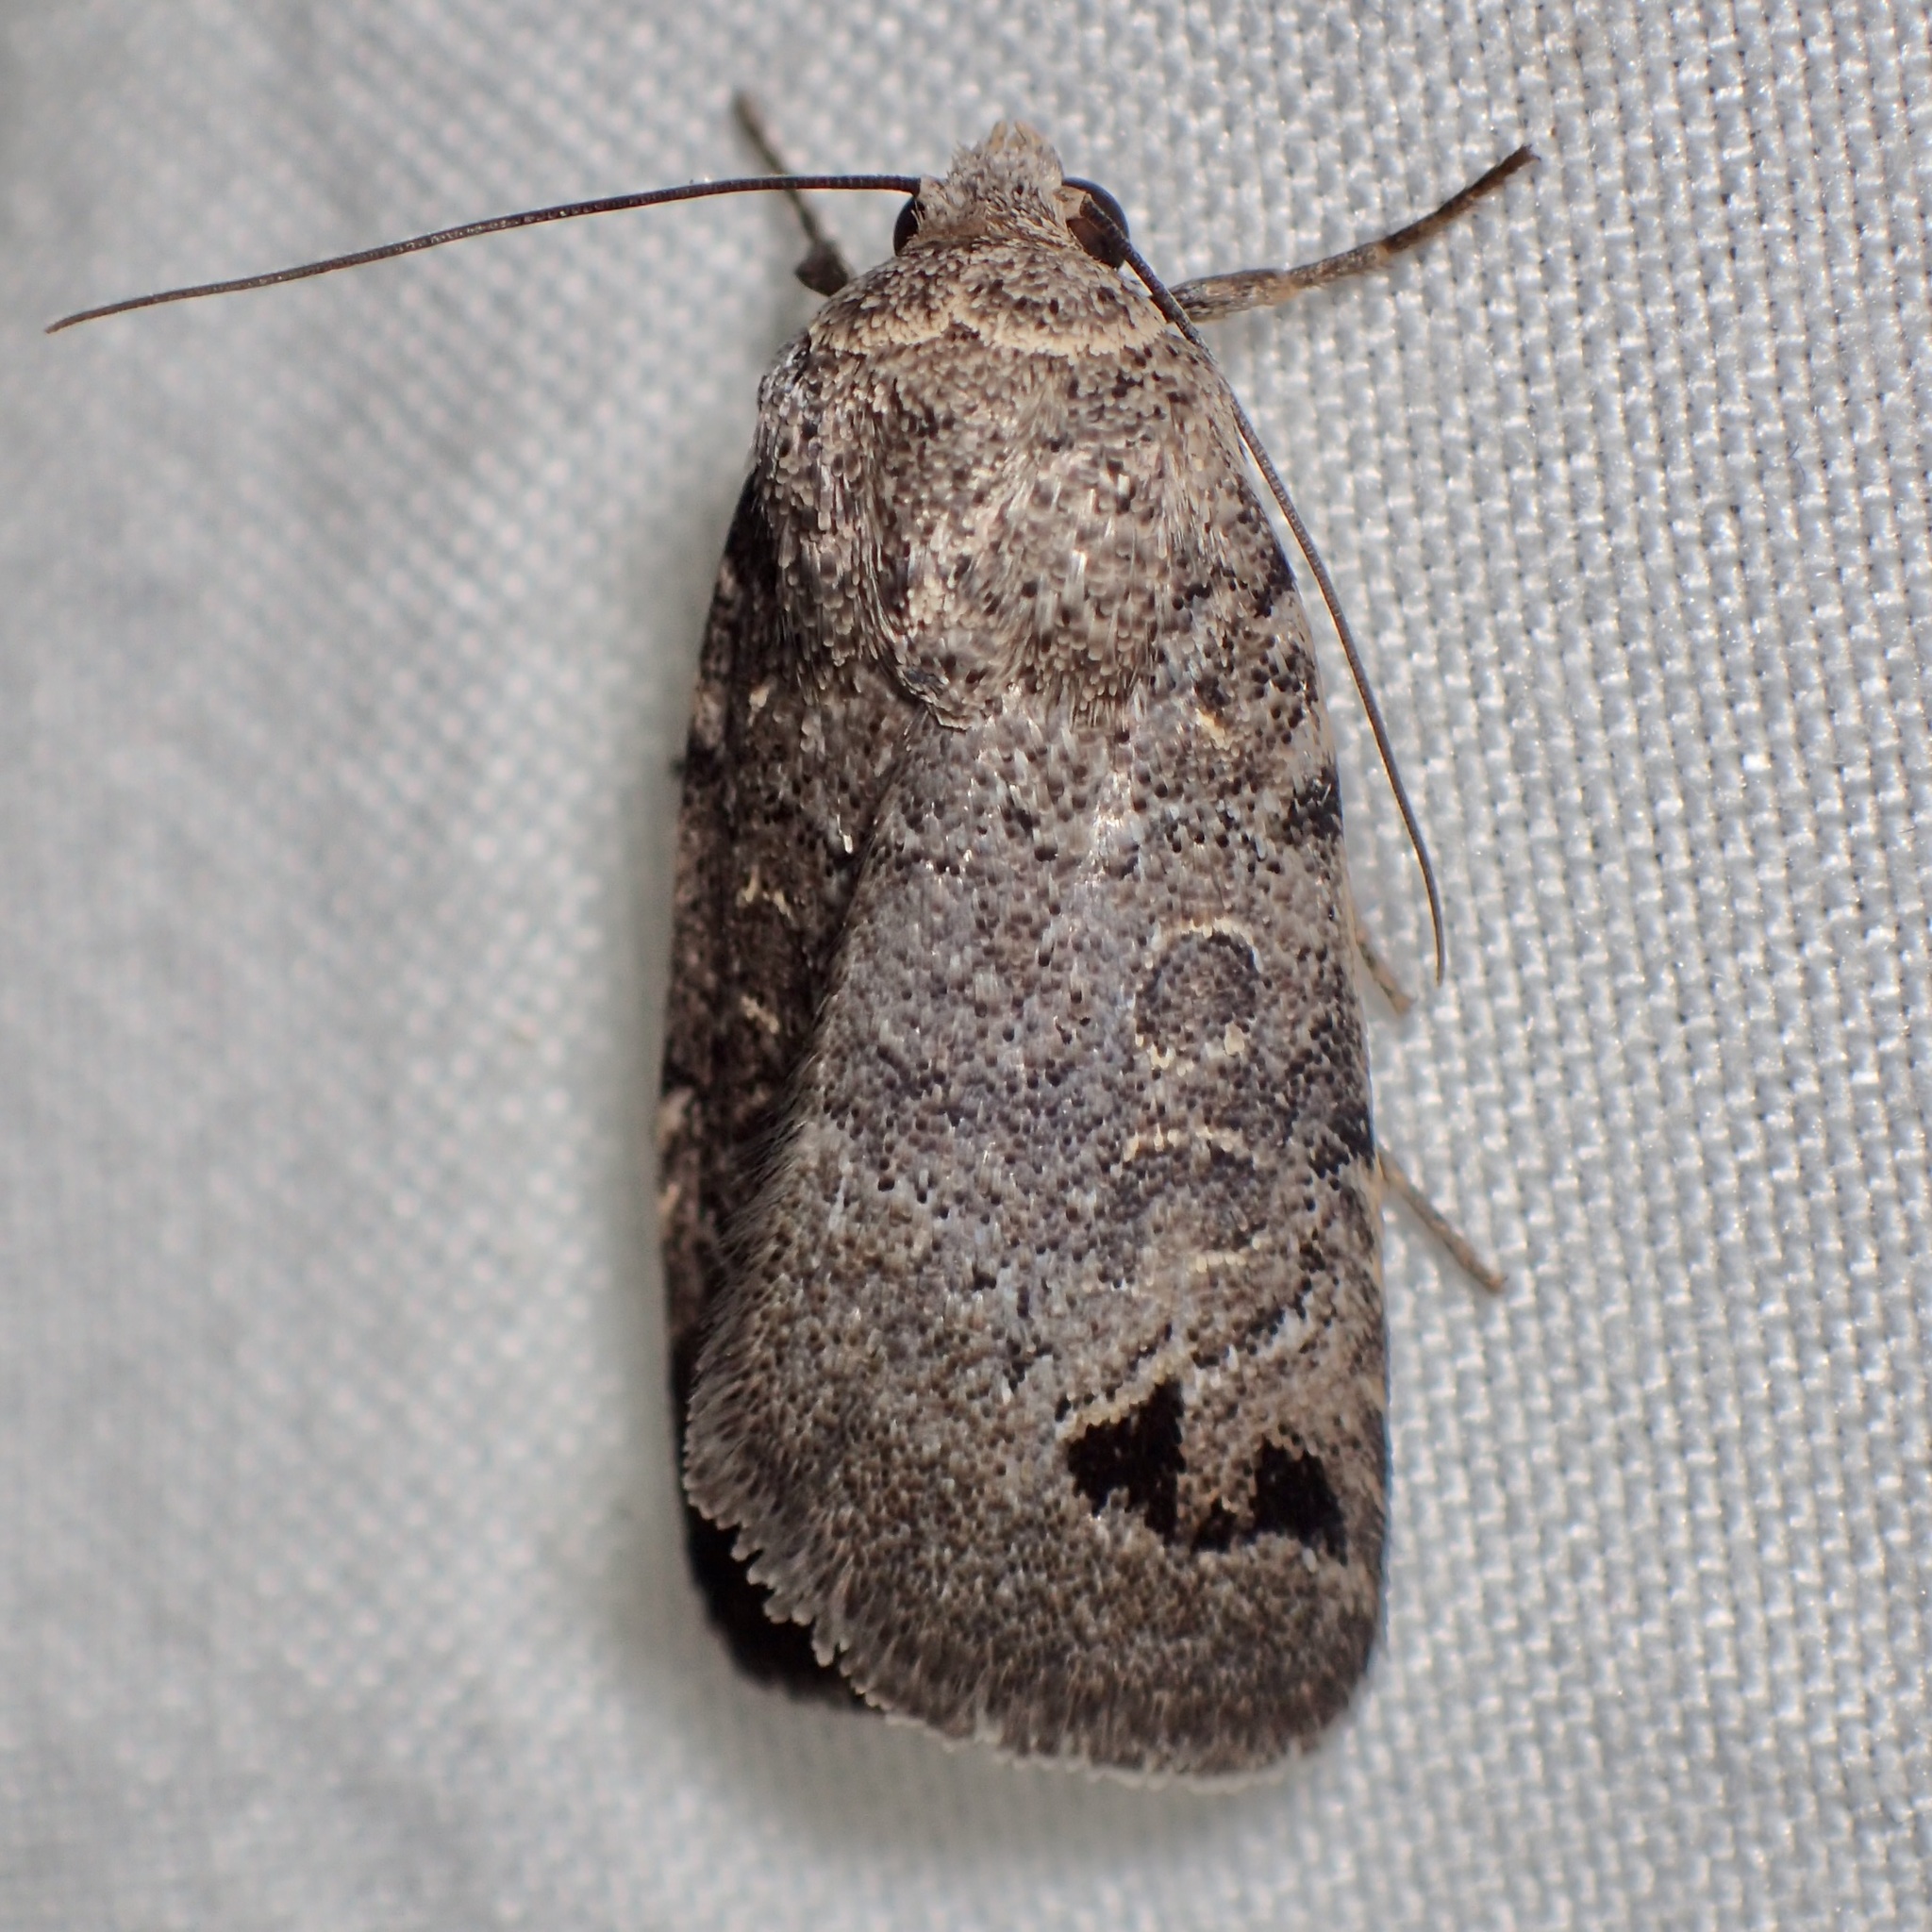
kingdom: Animalia
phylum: Arthropoda
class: Insecta
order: Lepidoptera
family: Noctuidae
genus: Anorthodes
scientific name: Anorthodes triquetra
